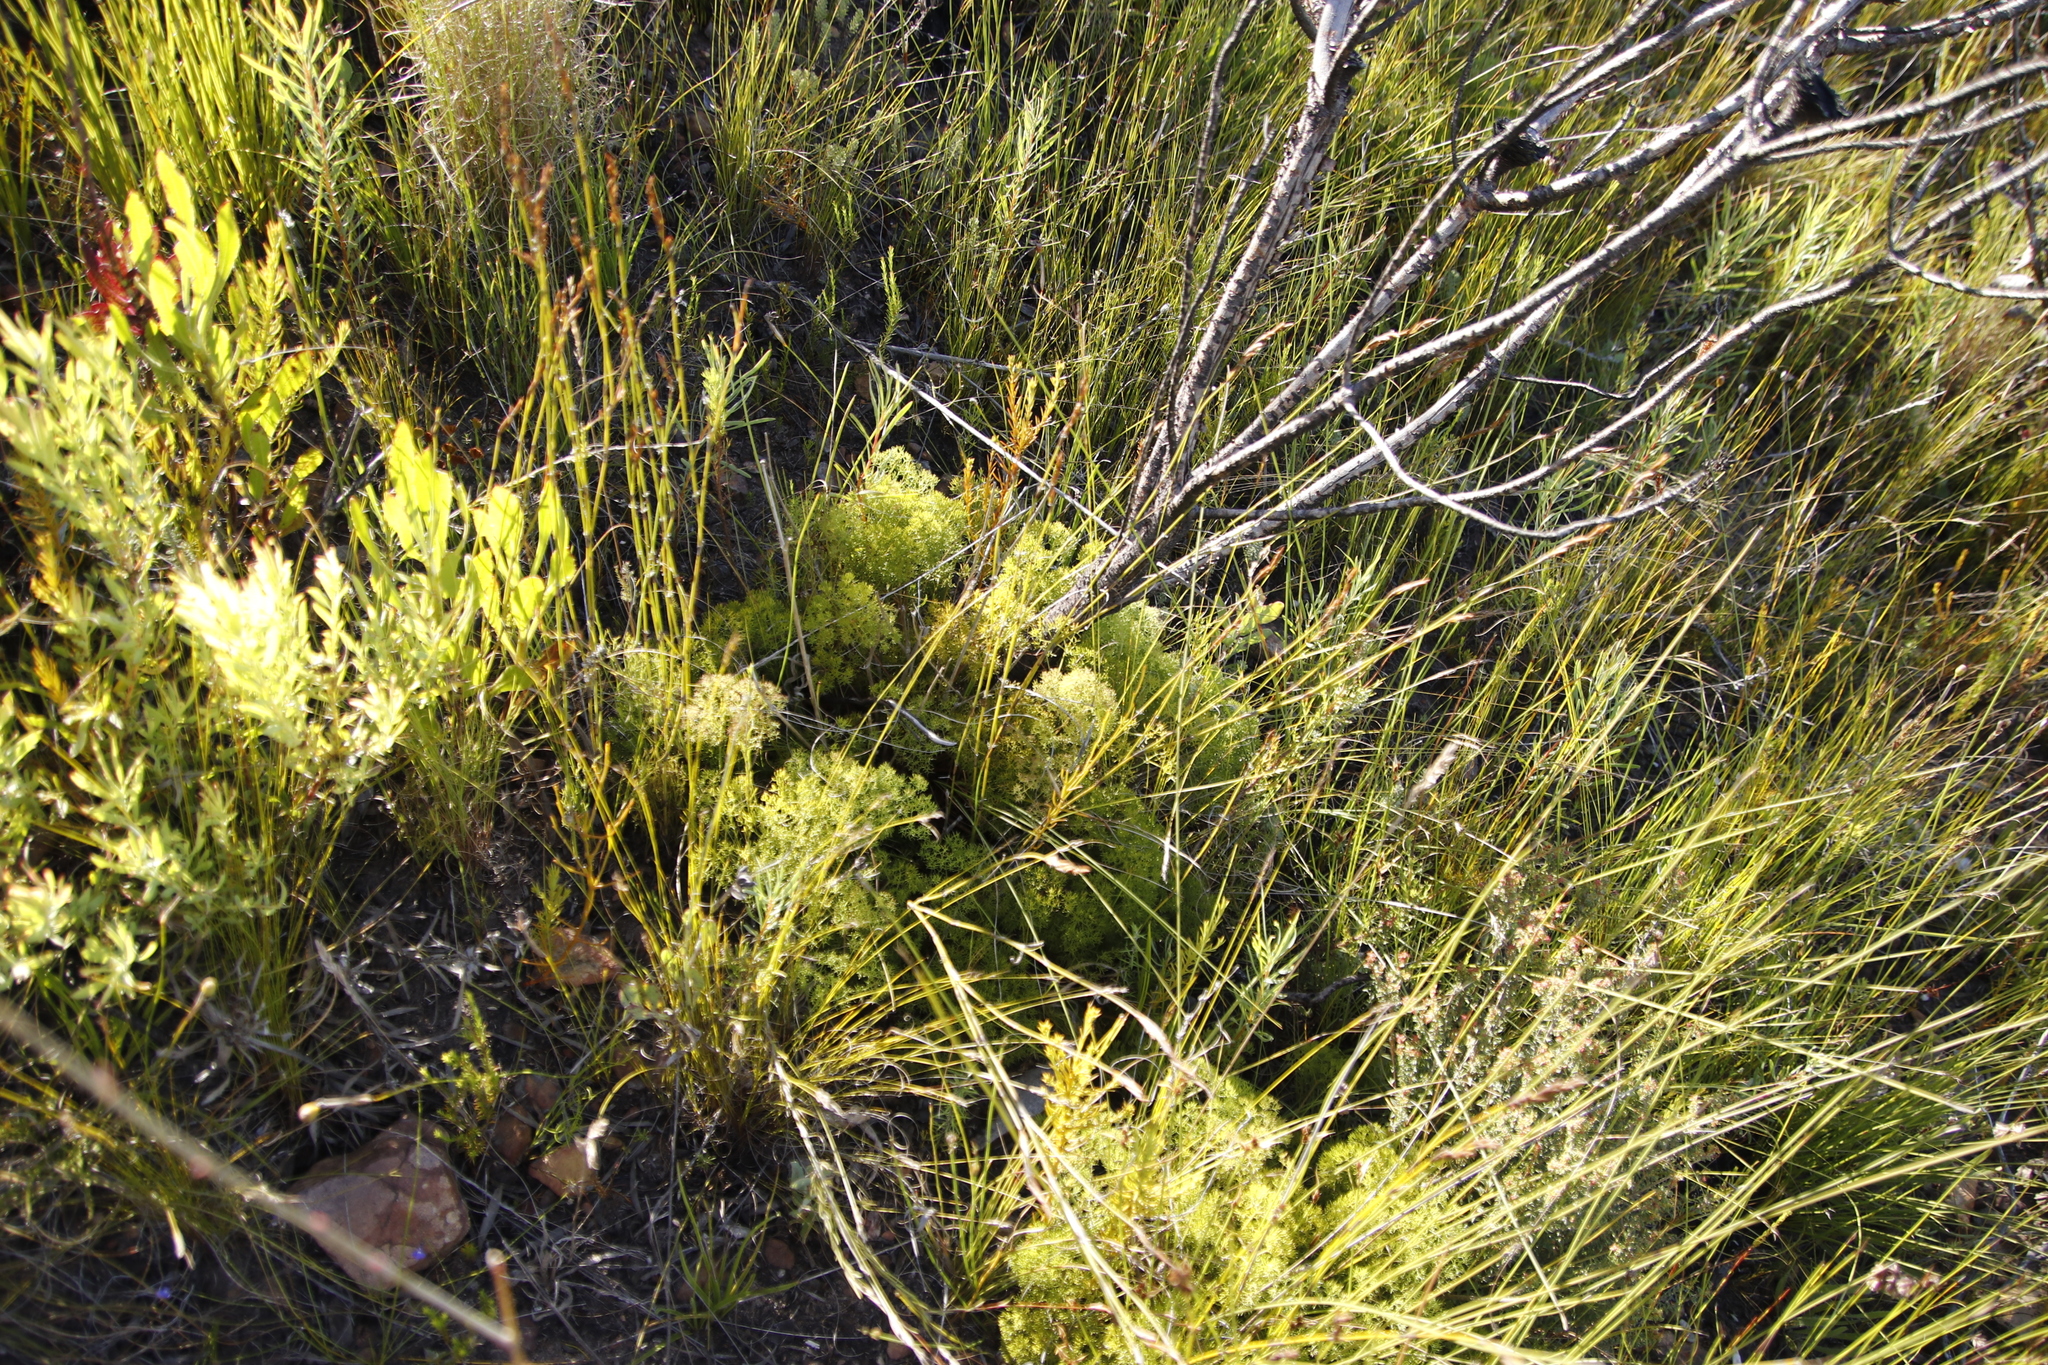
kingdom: Plantae
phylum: Tracheophyta
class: Magnoliopsida
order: Proteales
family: Proteaceae
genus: Serruria
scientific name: Serruria gremialis
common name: Riviersonderend spiderhead
